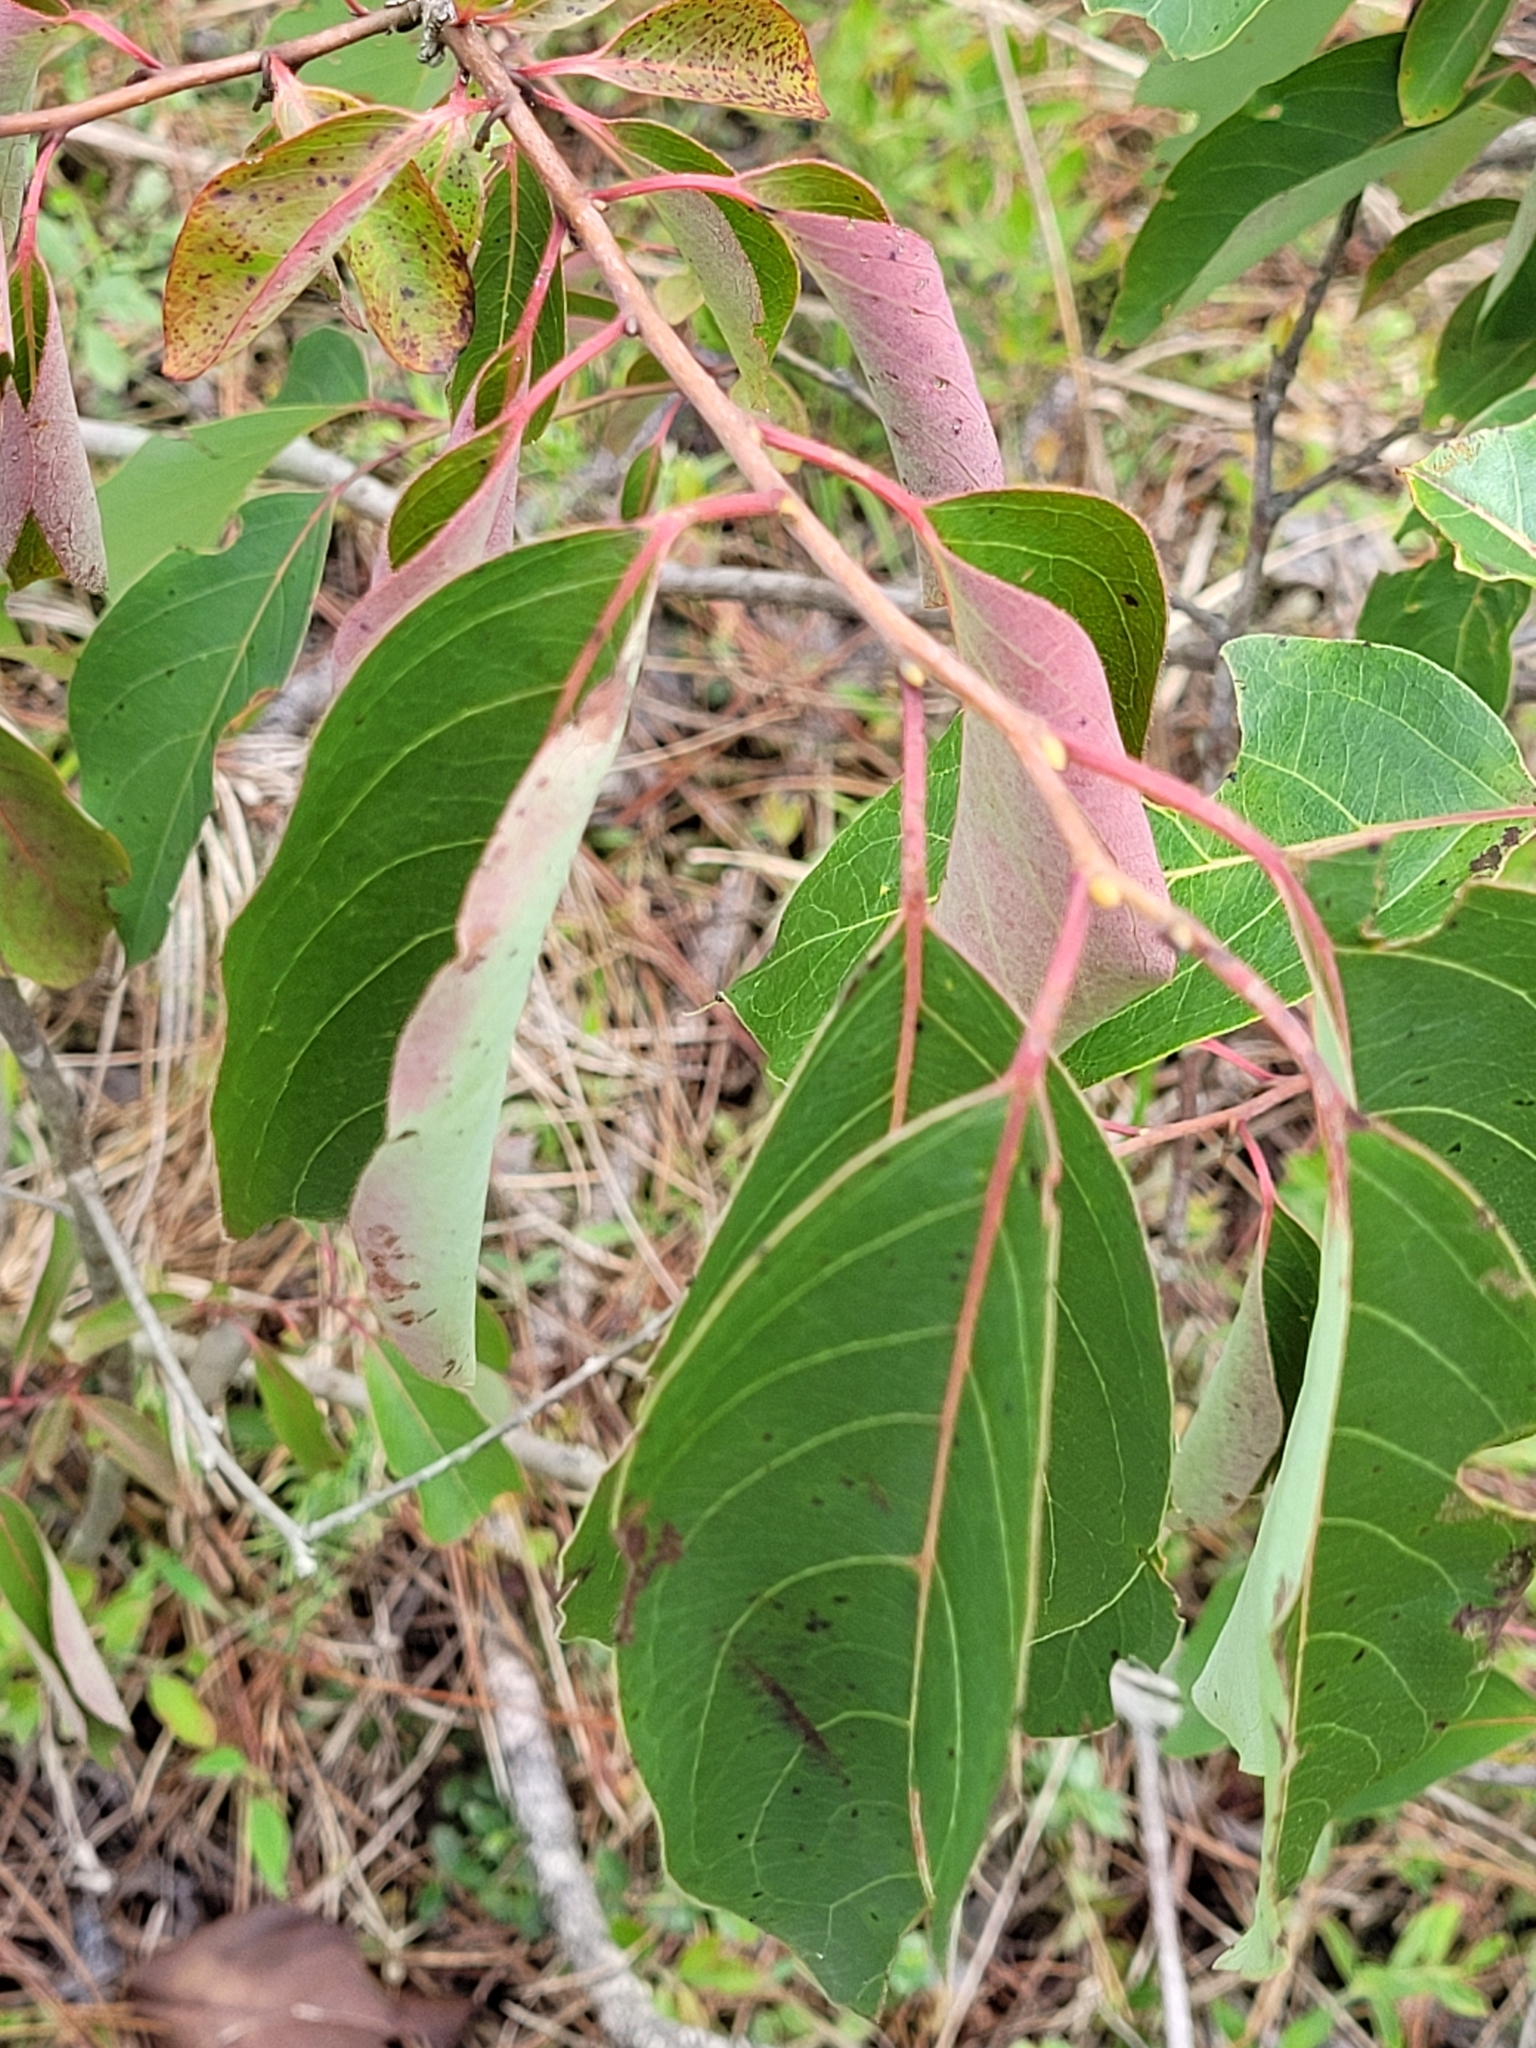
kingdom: Plantae
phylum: Tracheophyta
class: Magnoliopsida
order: Ericales
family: Ebenaceae
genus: Diospyros
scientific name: Diospyros virginiana
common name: Persimmon
